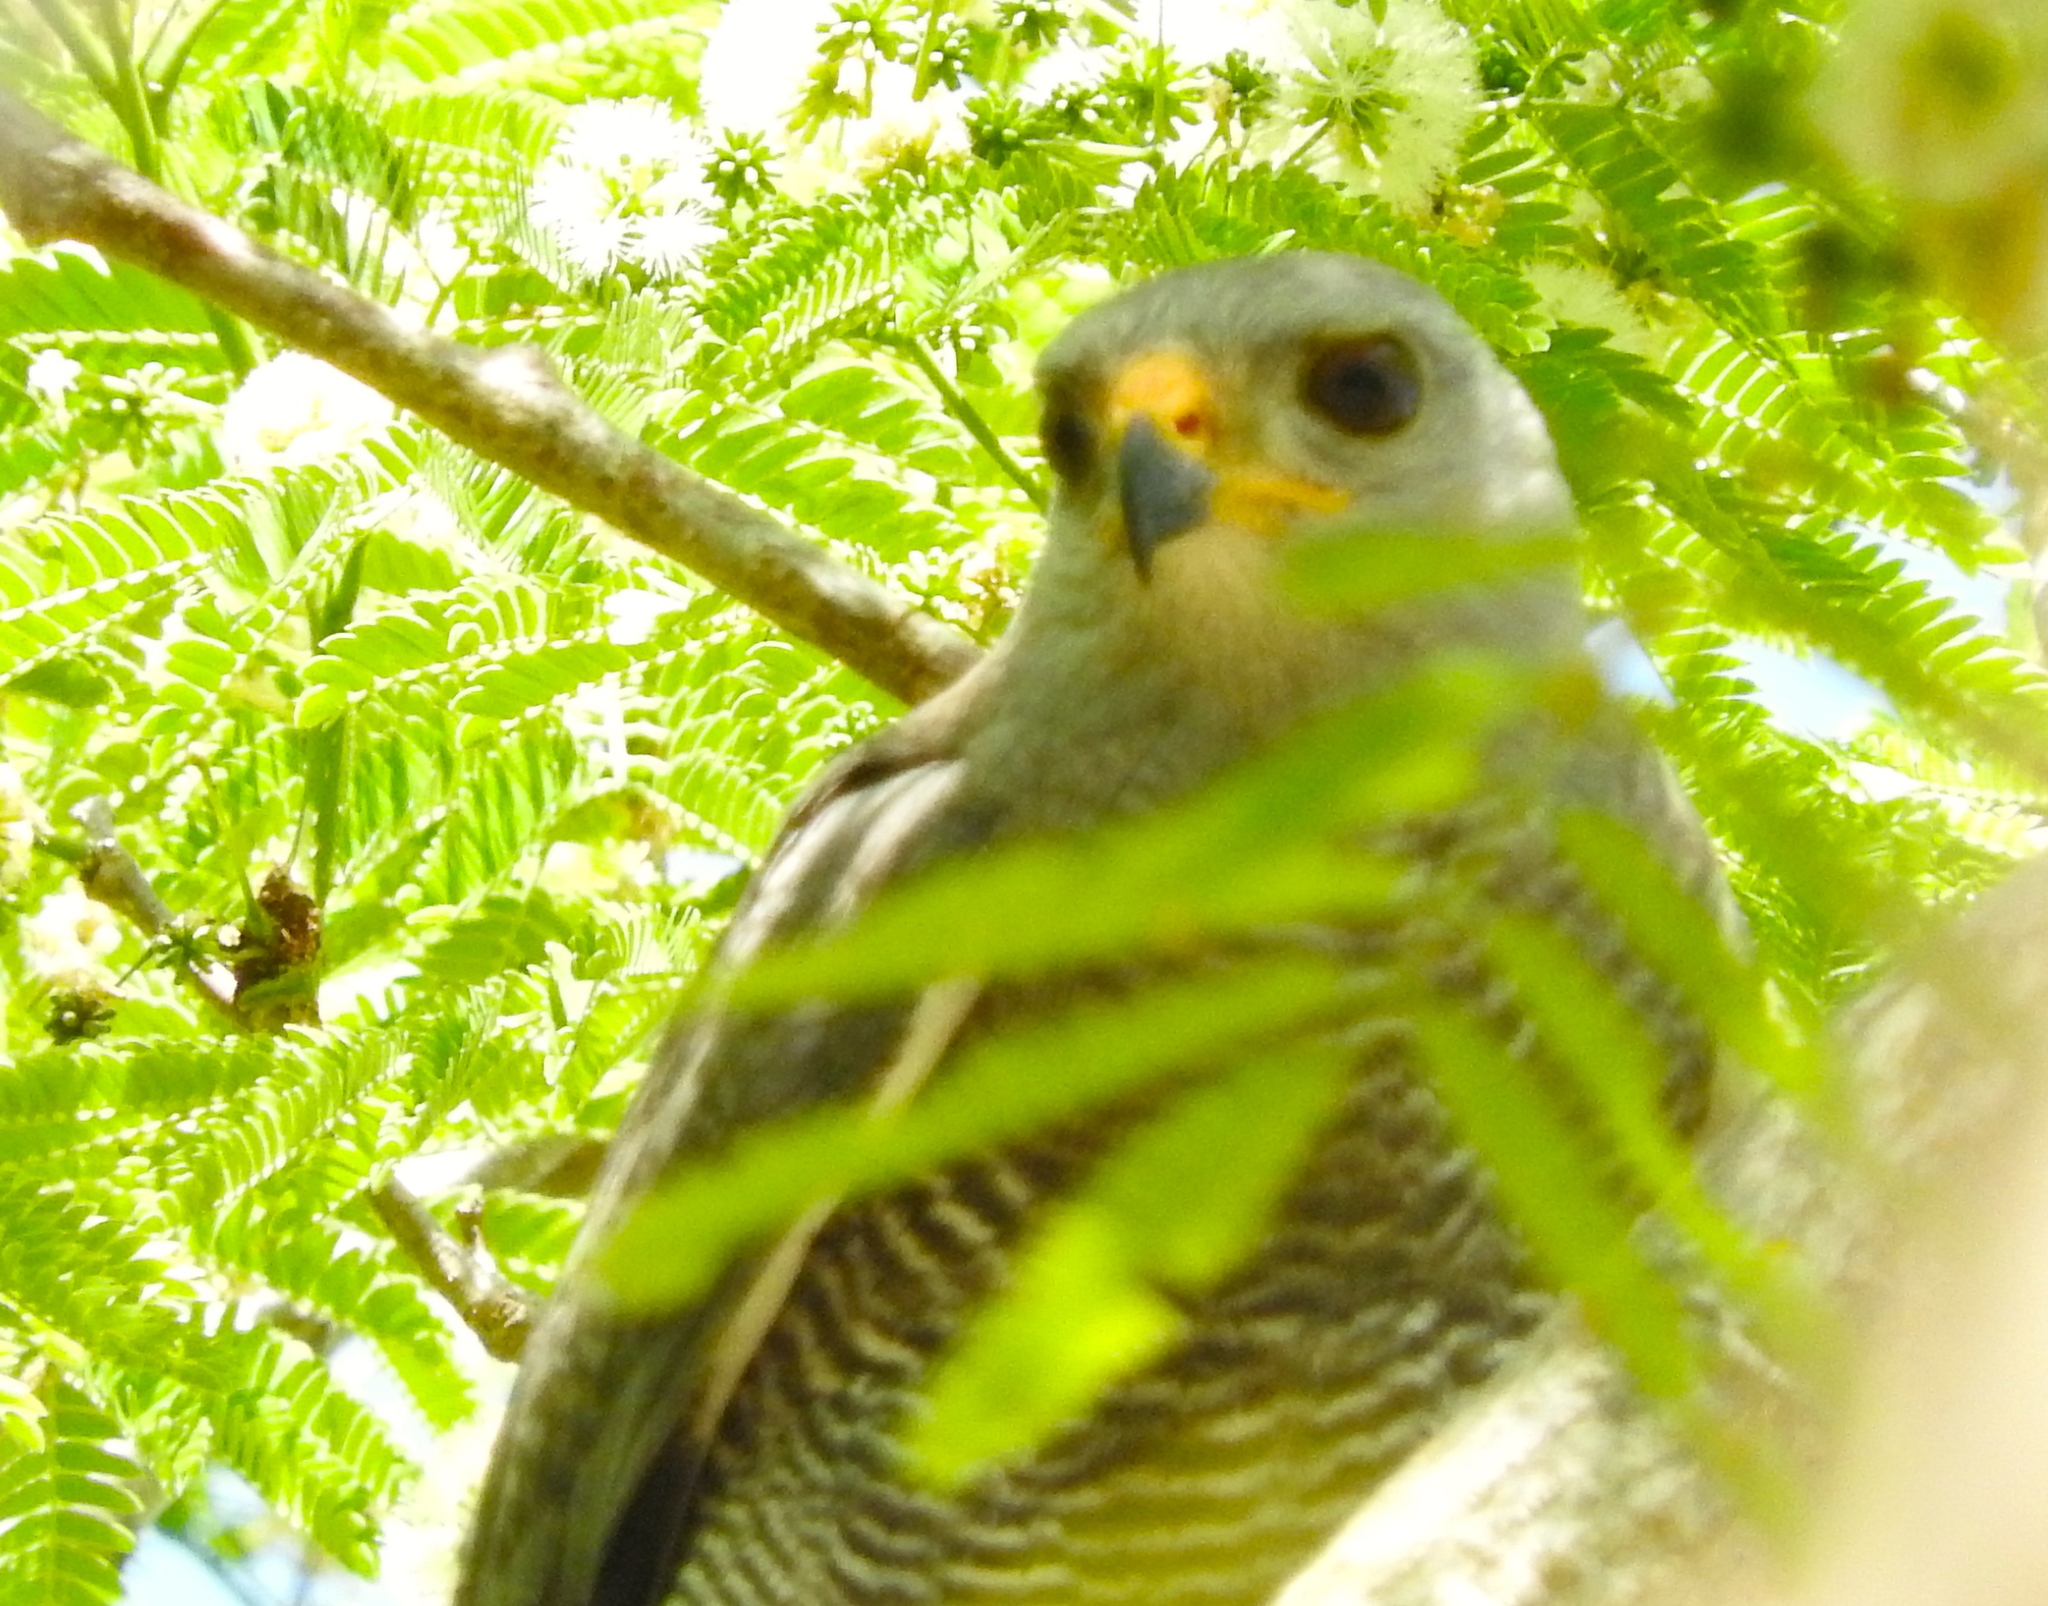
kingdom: Animalia
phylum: Chordata
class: Aves
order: Accipitriformes
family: Accipitridae
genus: Buteo
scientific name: Buteo nitidus
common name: Grey-lined hawk
